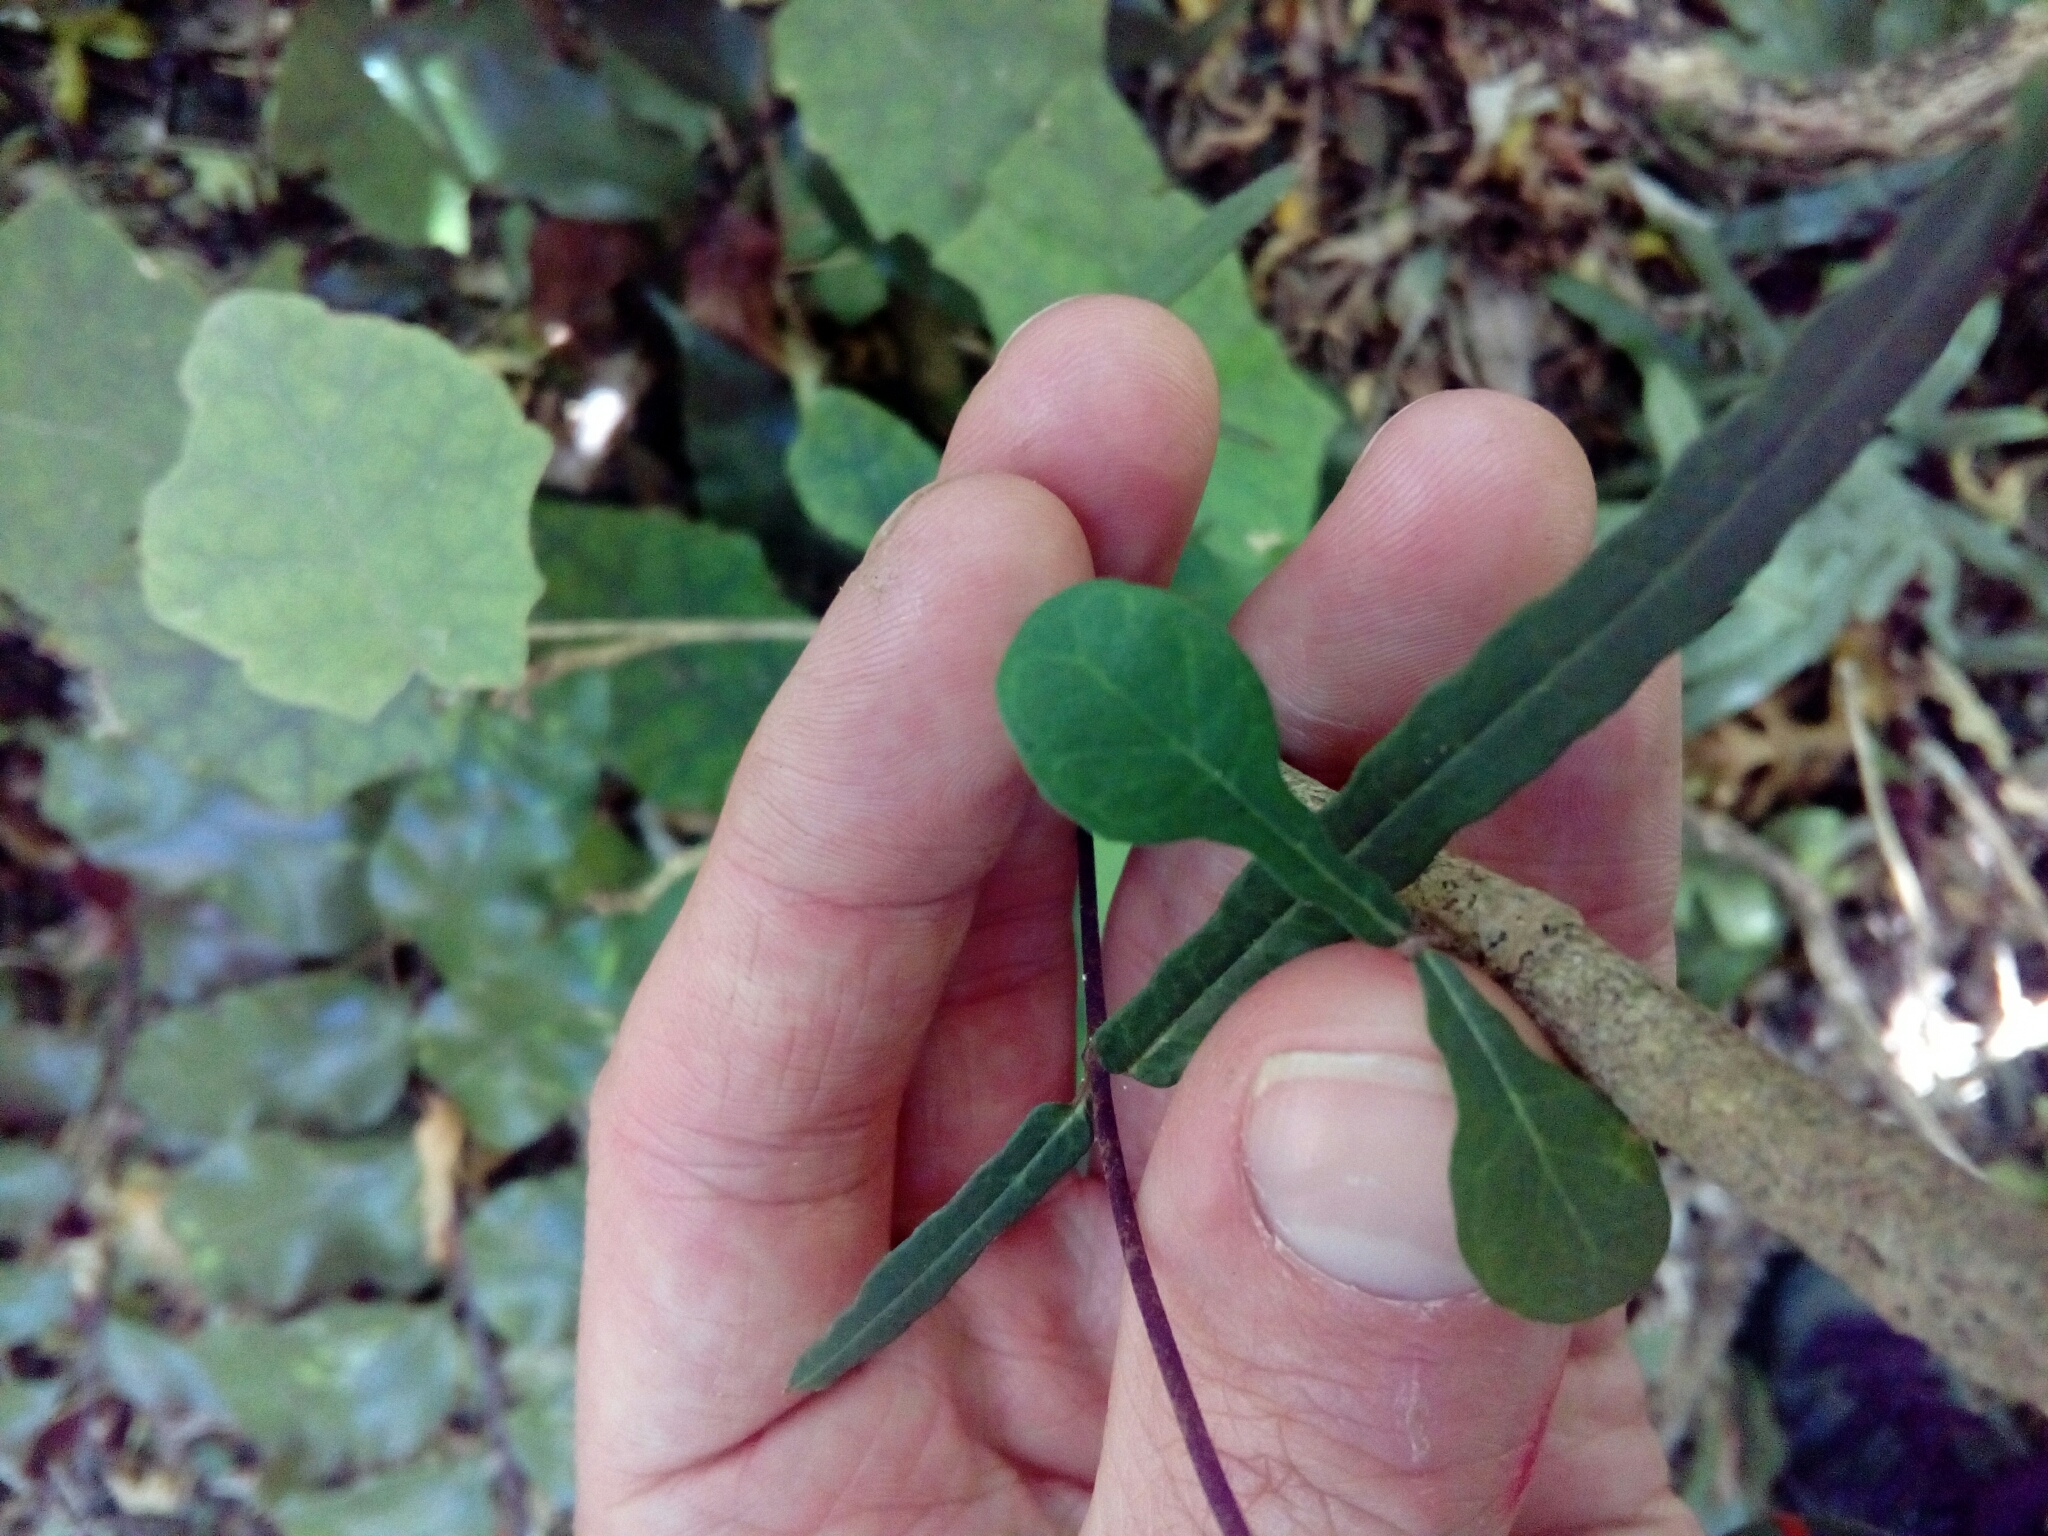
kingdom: Plantae
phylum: Tracheophyta
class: Magnoliopsida
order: Gentianales
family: Apocynaceae
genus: Parsonsia
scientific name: Parsonsia heterophylla
